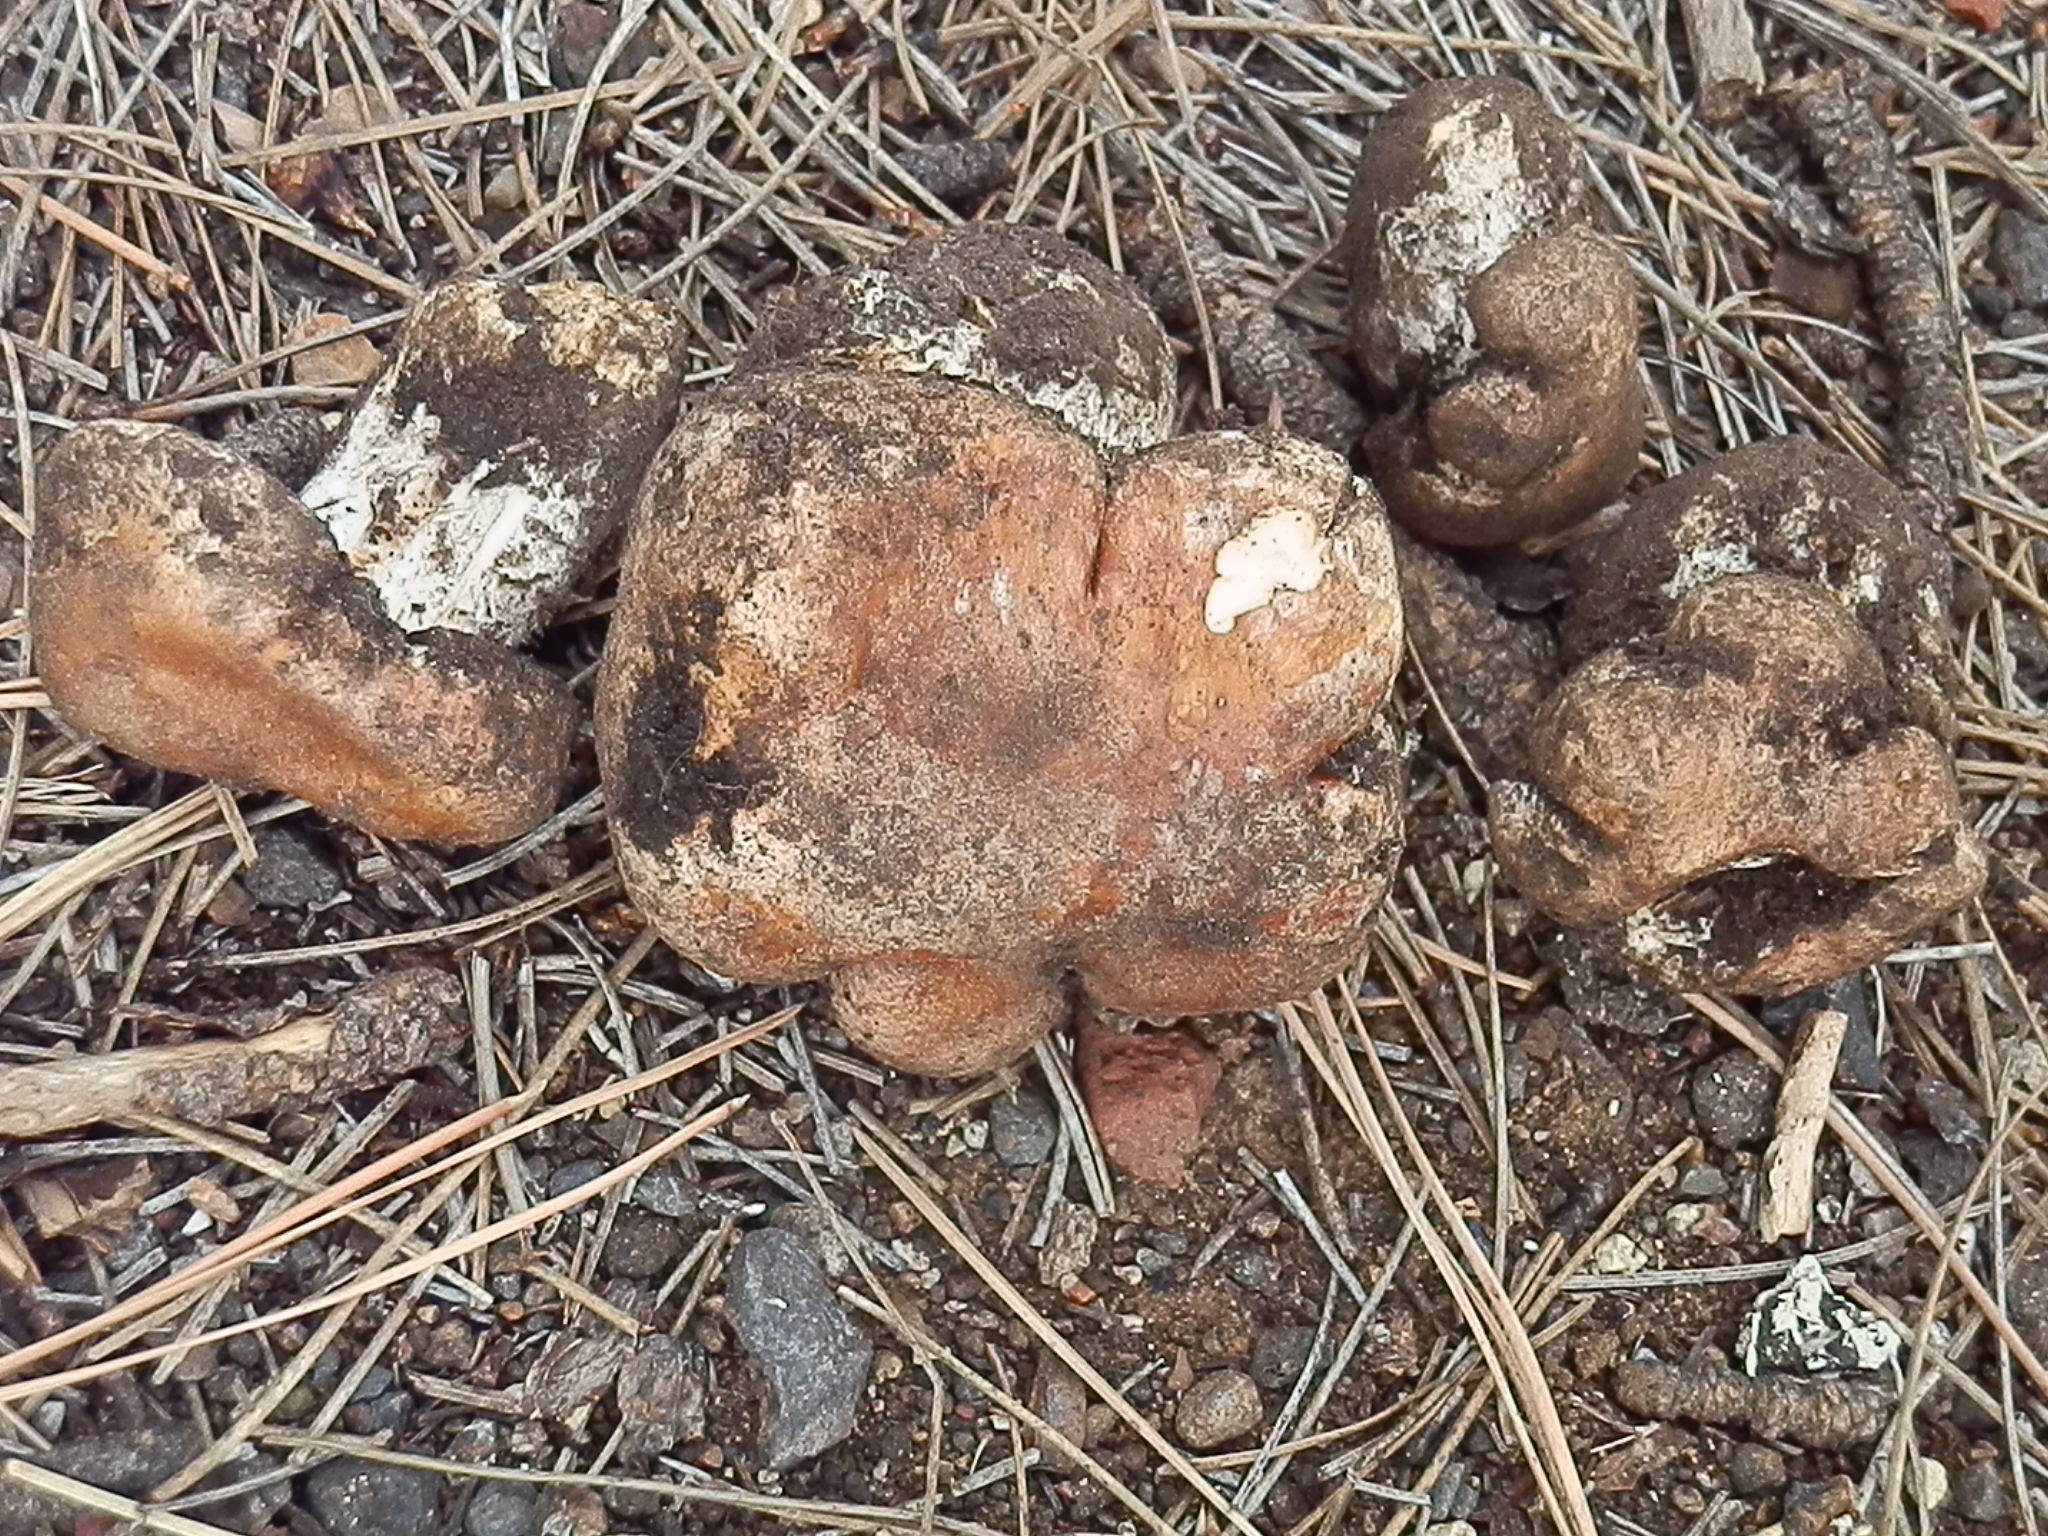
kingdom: Fungi
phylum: Basidiomycota
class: Agaricomycetes
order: Agaricales
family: Hymenogastraceae
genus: Hebeloma
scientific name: Hebeloma albomarginatum
